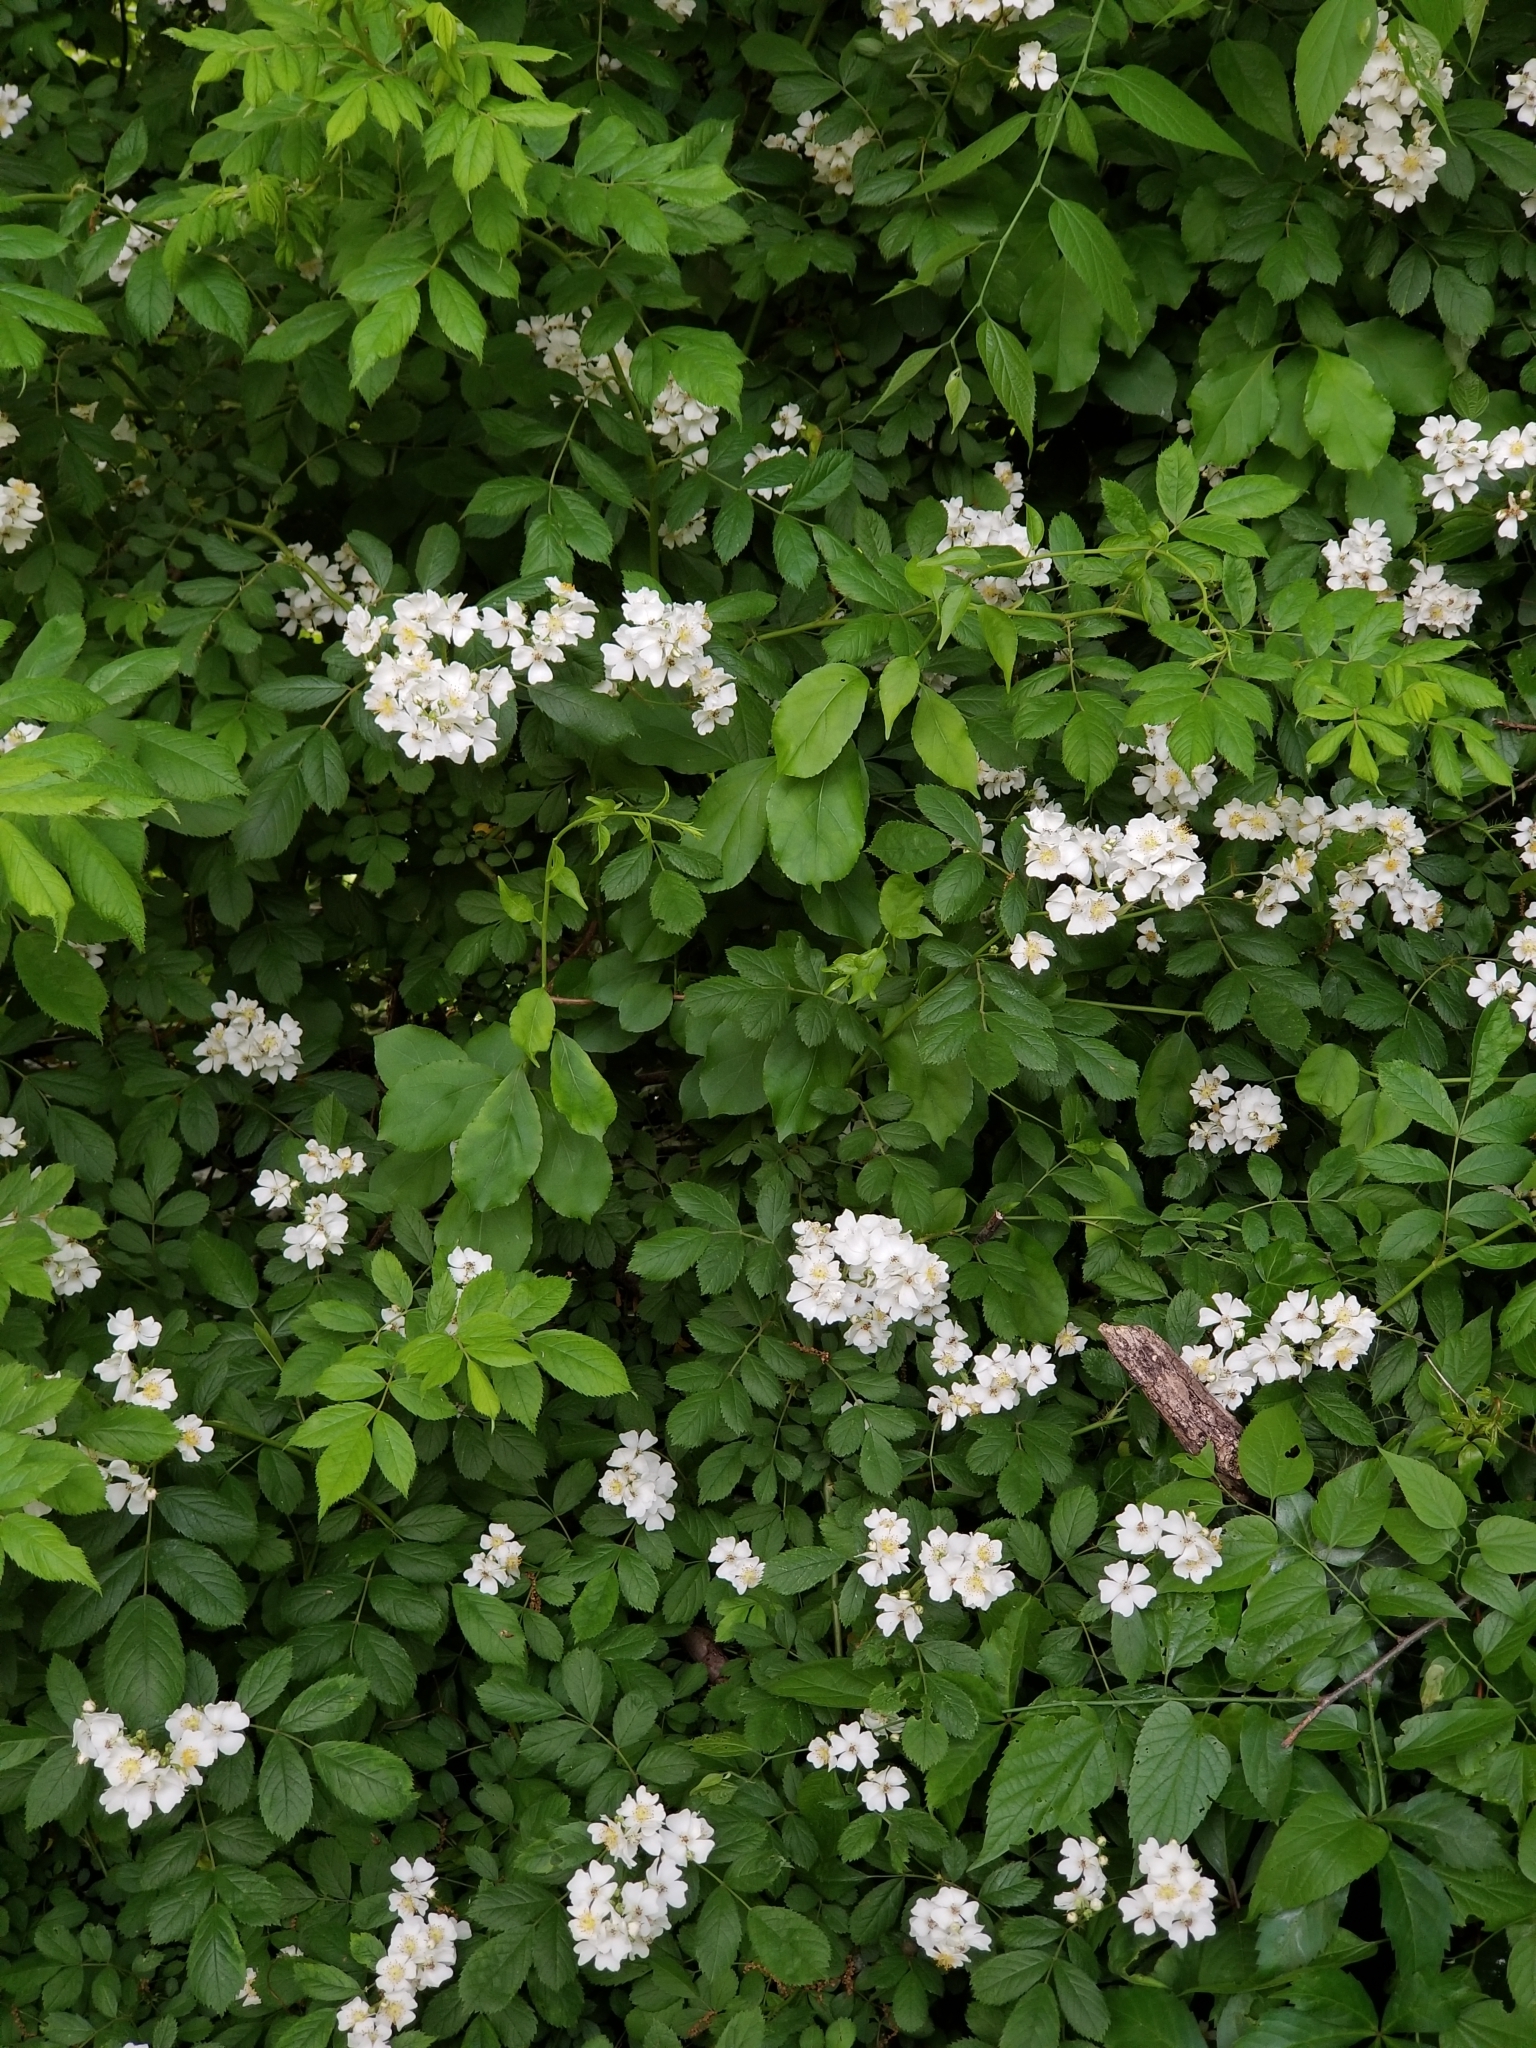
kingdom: Plantae
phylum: Tracheophyta
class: Magnoliopsida
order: Rosales
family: Rosaceae
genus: Rosa
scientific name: Rosa multiflora
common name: Multiflora rose
